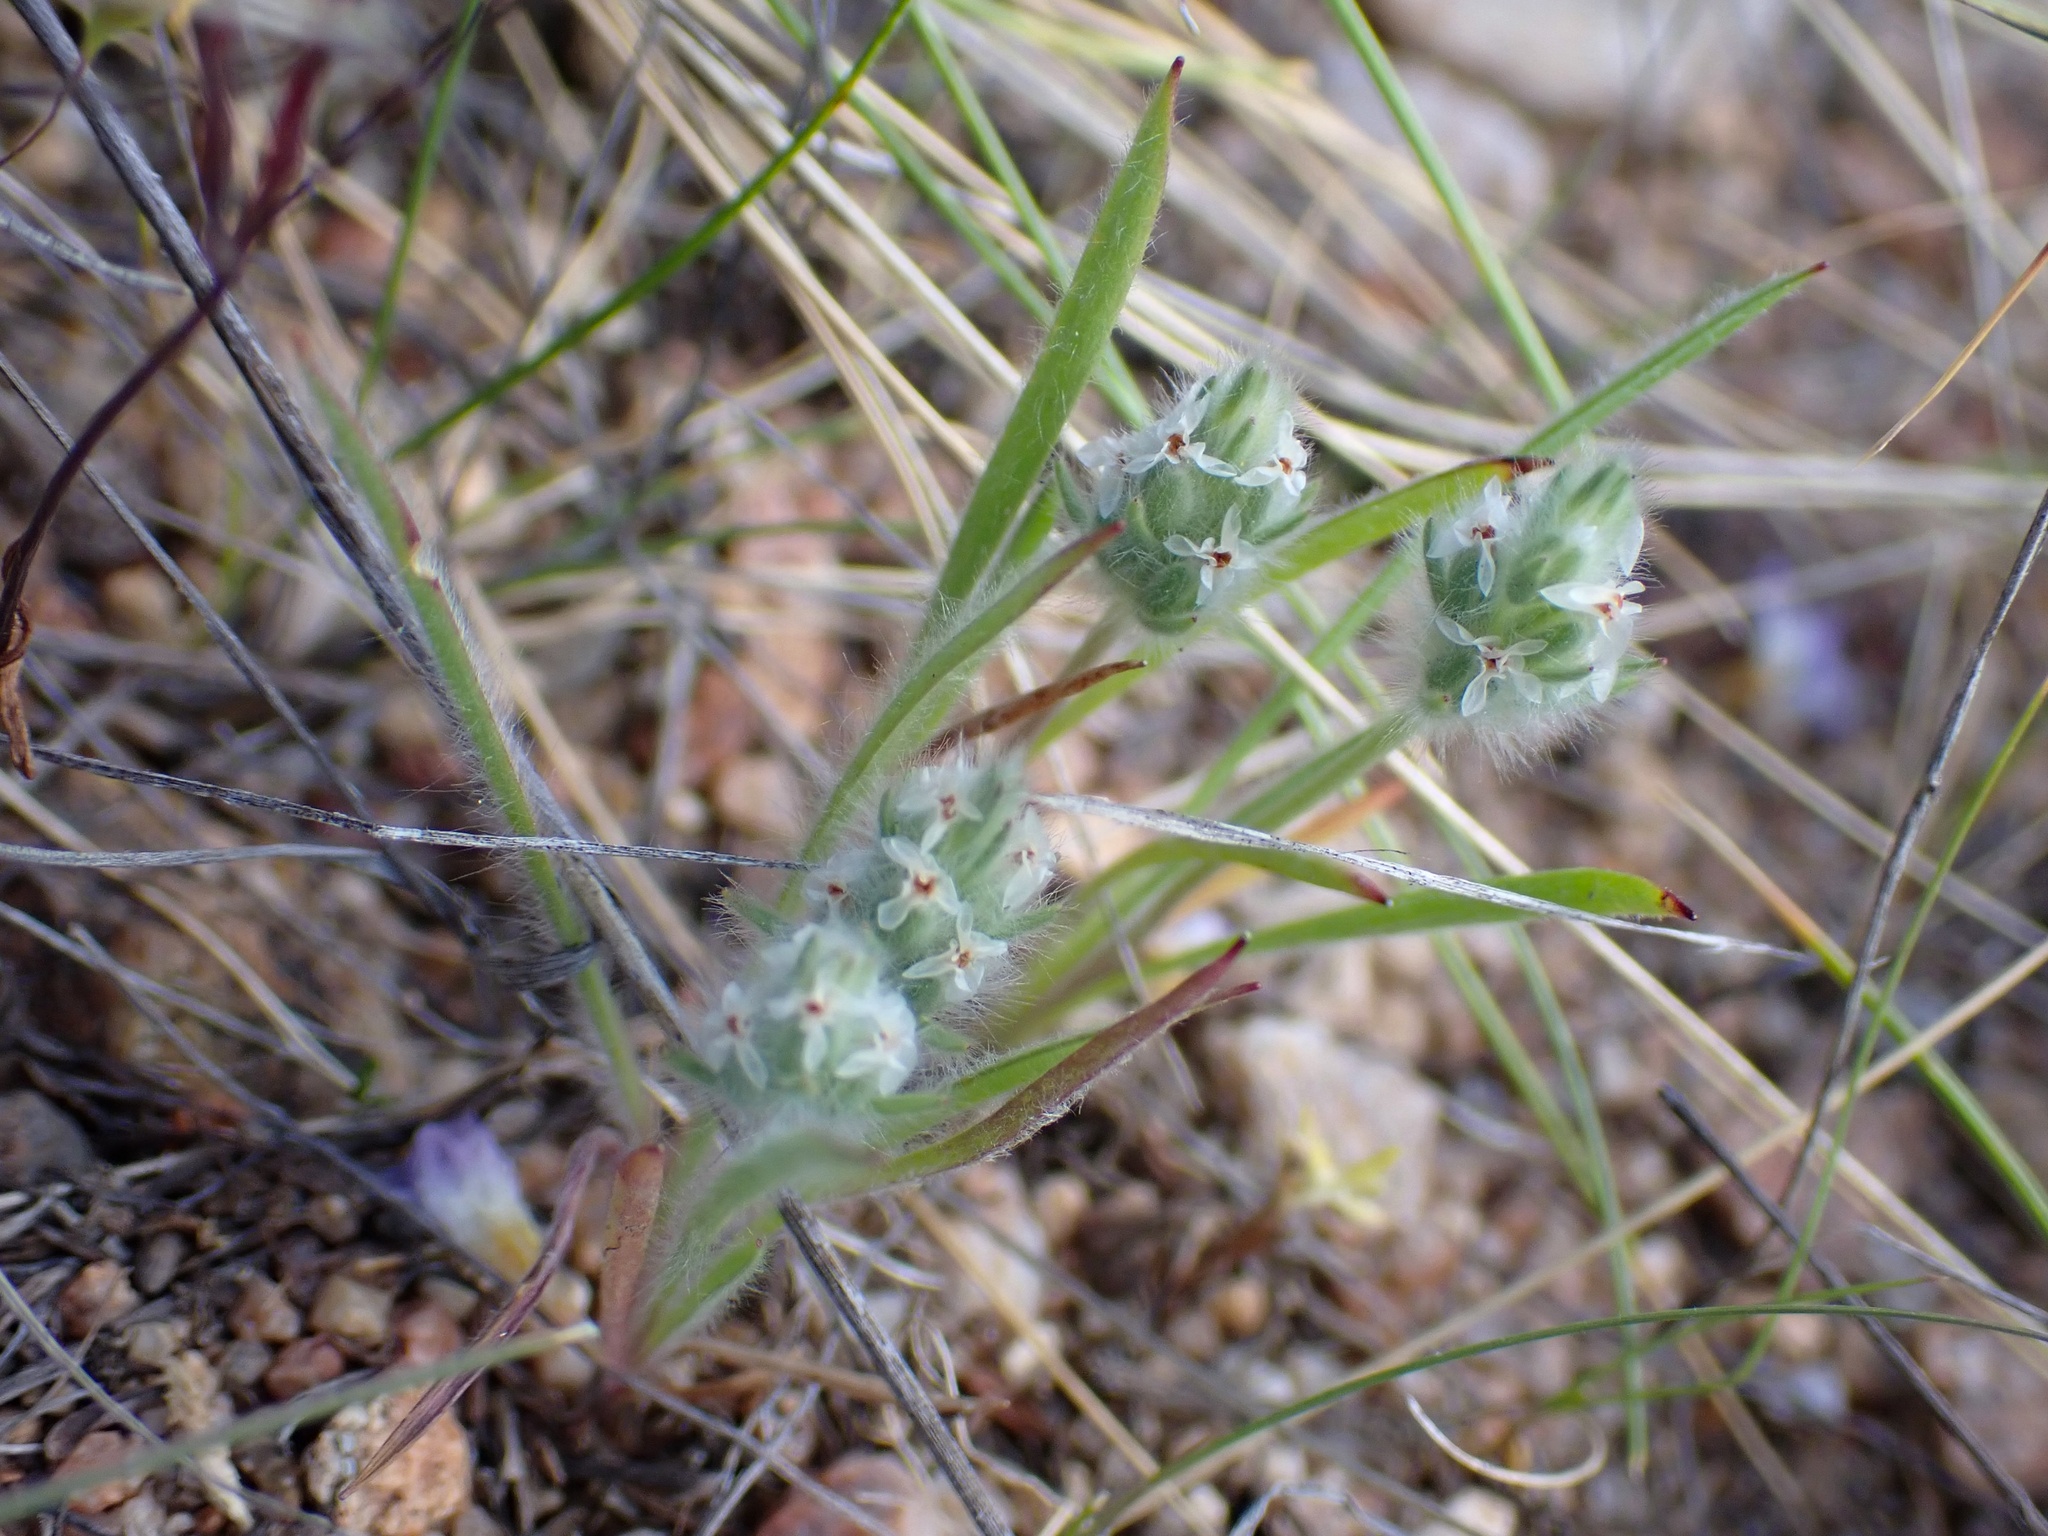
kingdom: Plantae
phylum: Tracheophyta
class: Magnoliopsida
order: Lamiales
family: Plantaginaceae
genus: Plantago
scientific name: Plantago patagonica
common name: Patagonia indian-wheat
